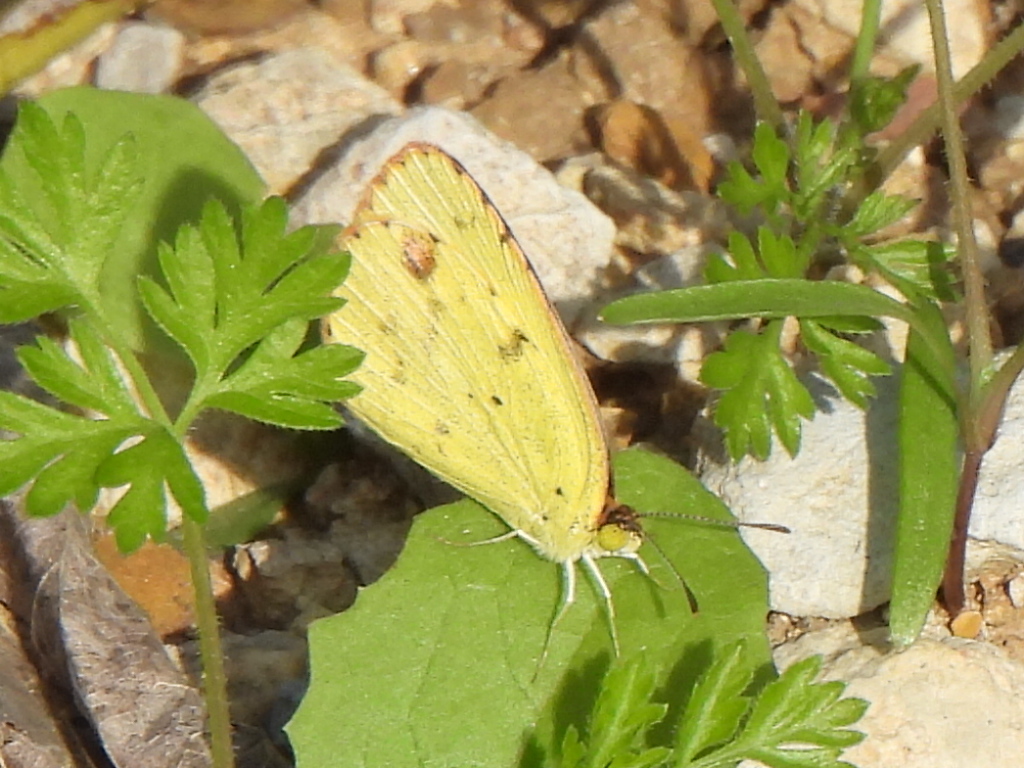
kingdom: Animalia
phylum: Arthropoda
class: Insecta
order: Lepidoptera
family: Pieridae
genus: Pyrisitia
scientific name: Pyrisitia lisa
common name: Little yellow
